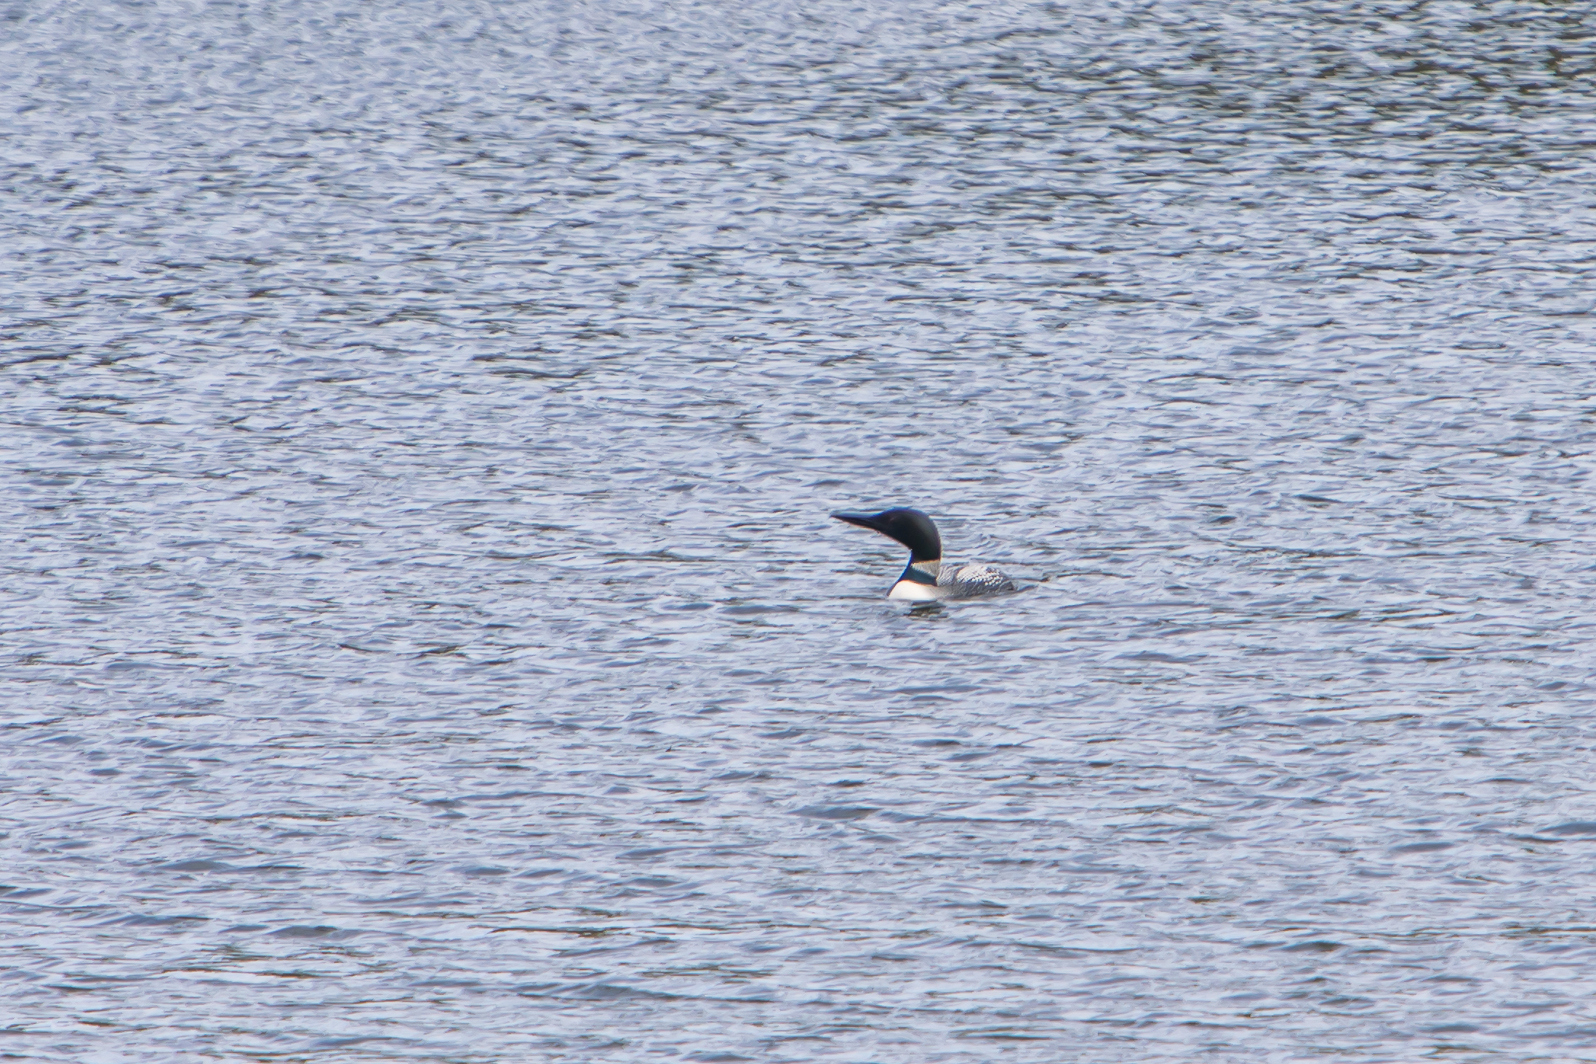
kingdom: Animalia
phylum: Chordata
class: Aves
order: Gaviiformes
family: Gaviidae
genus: Gavia
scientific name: Gavia immer
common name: Common loon
